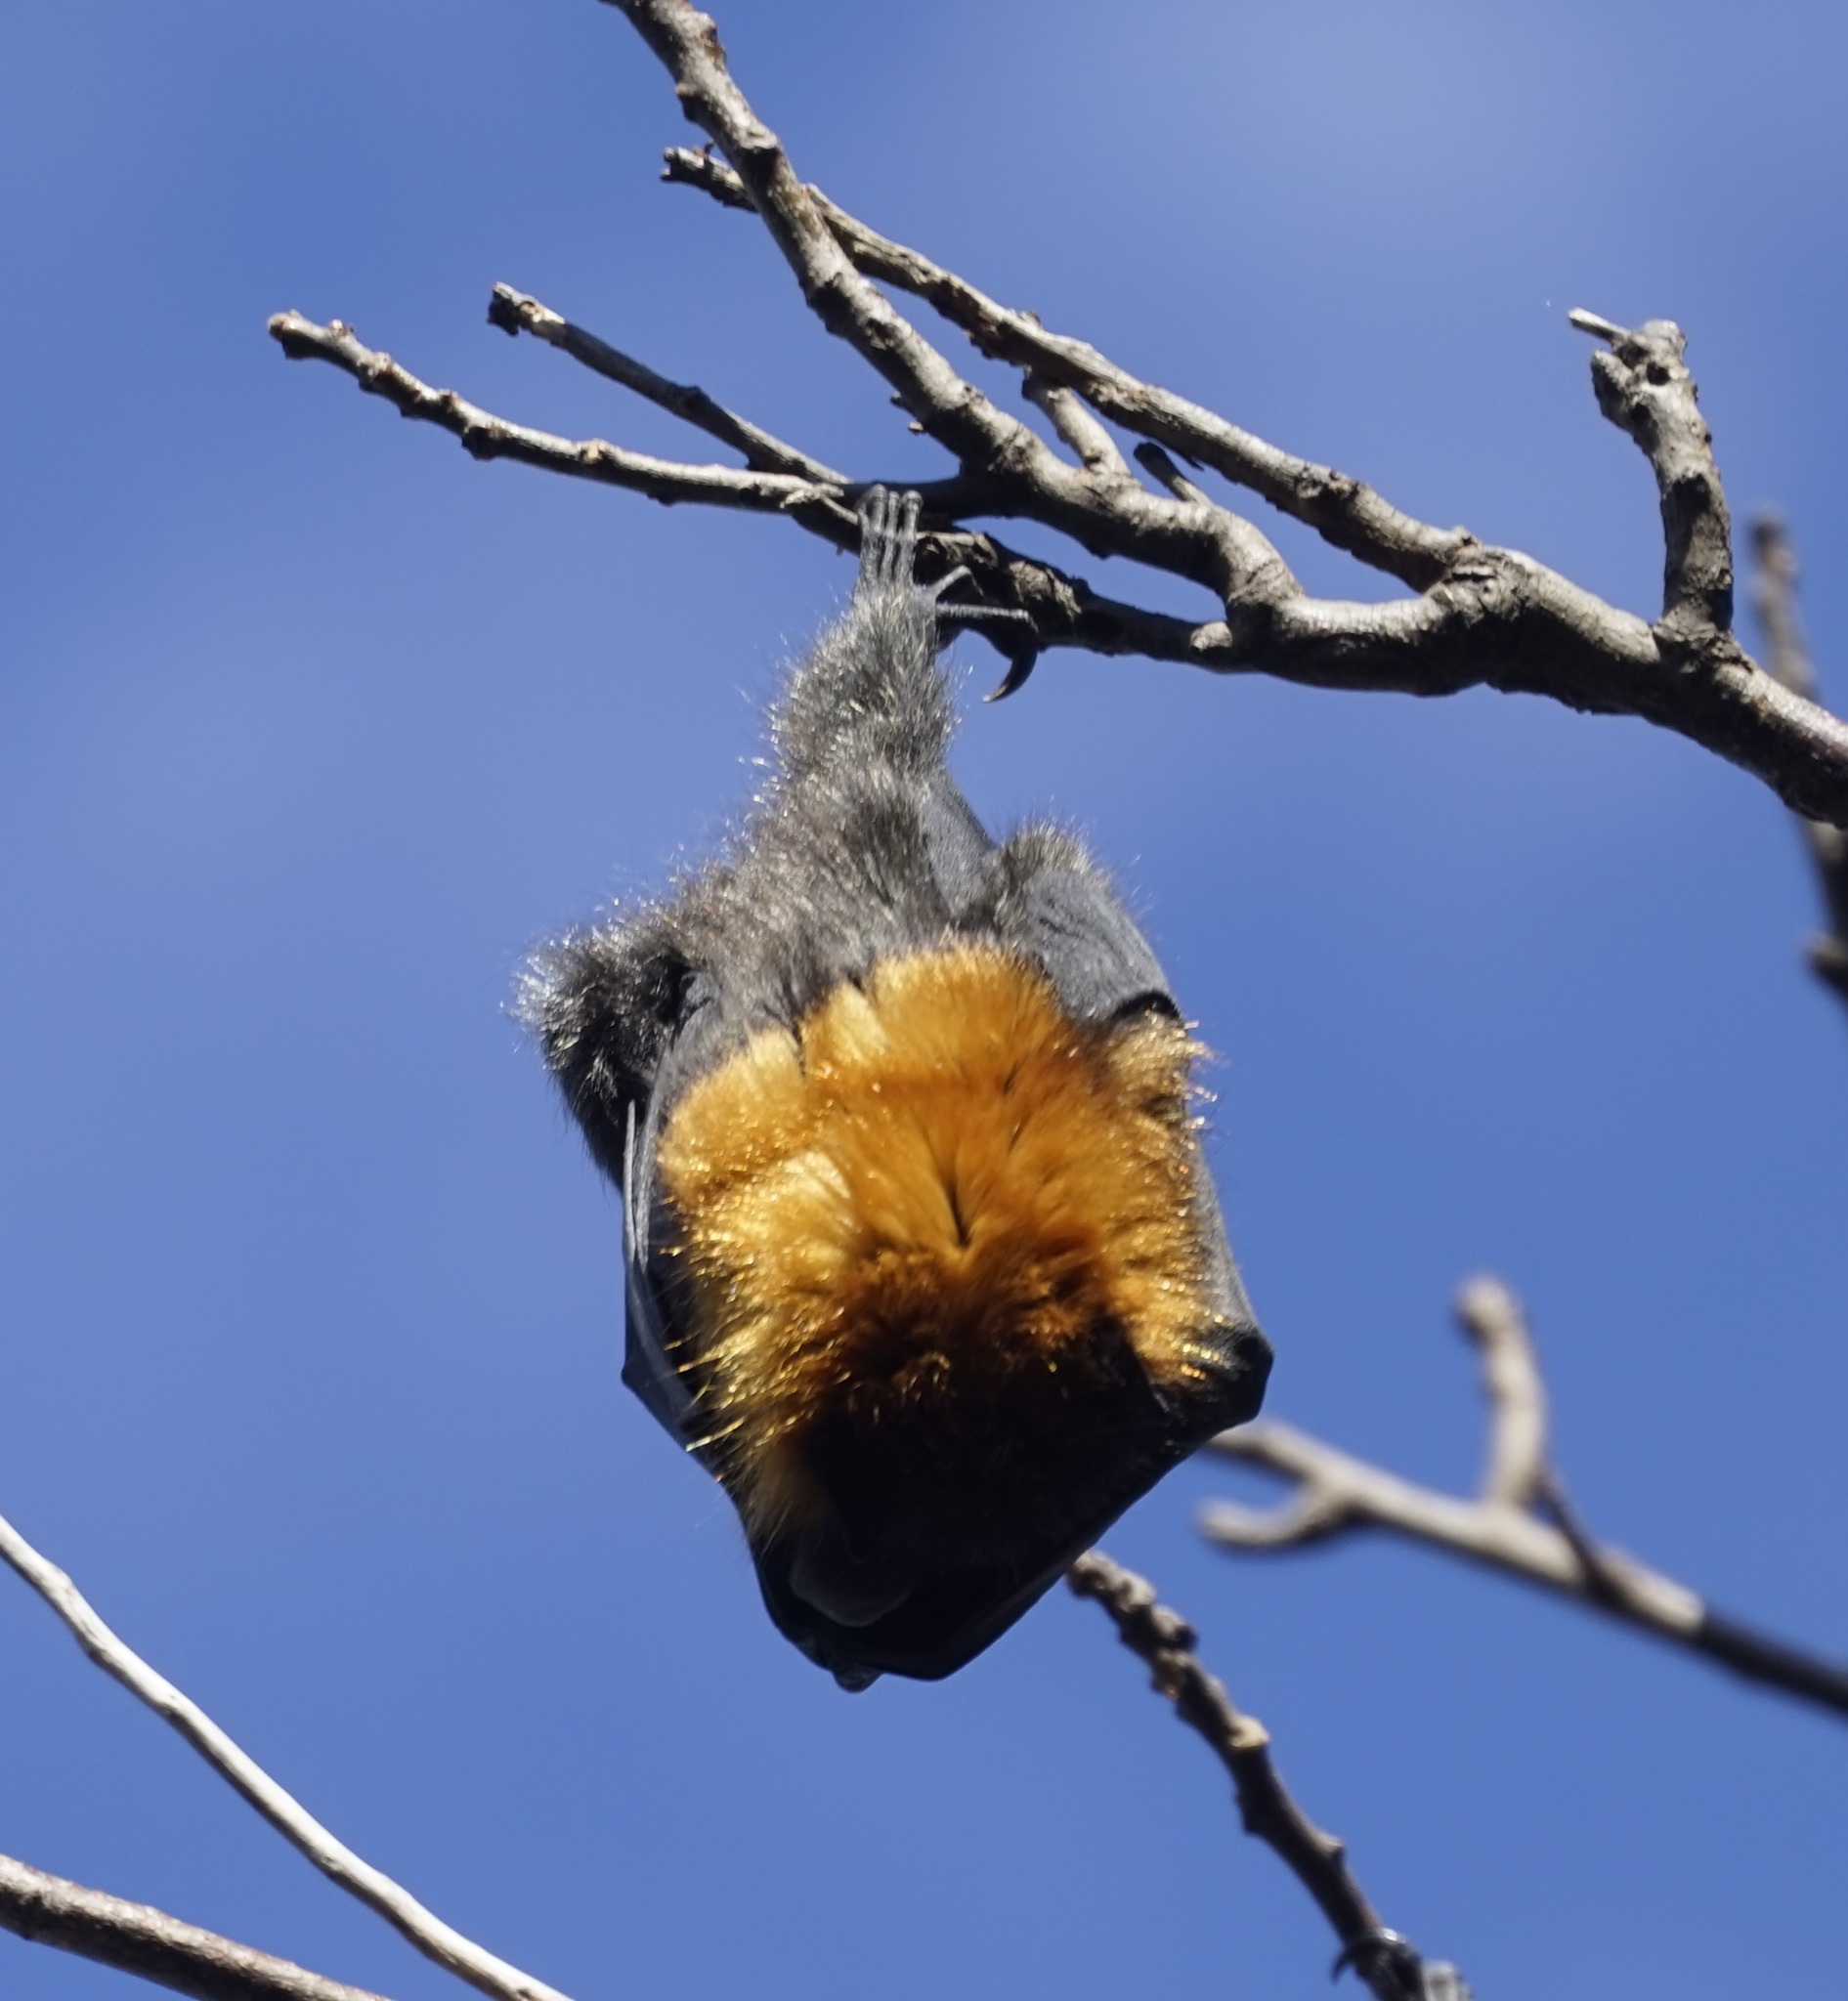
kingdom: Animalia
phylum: Chordata
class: Mammalia
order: Chiroptera
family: Pteropodidae
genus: Pteropus
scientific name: Pteropus poliocephalus
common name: Gray-headed flying fox
